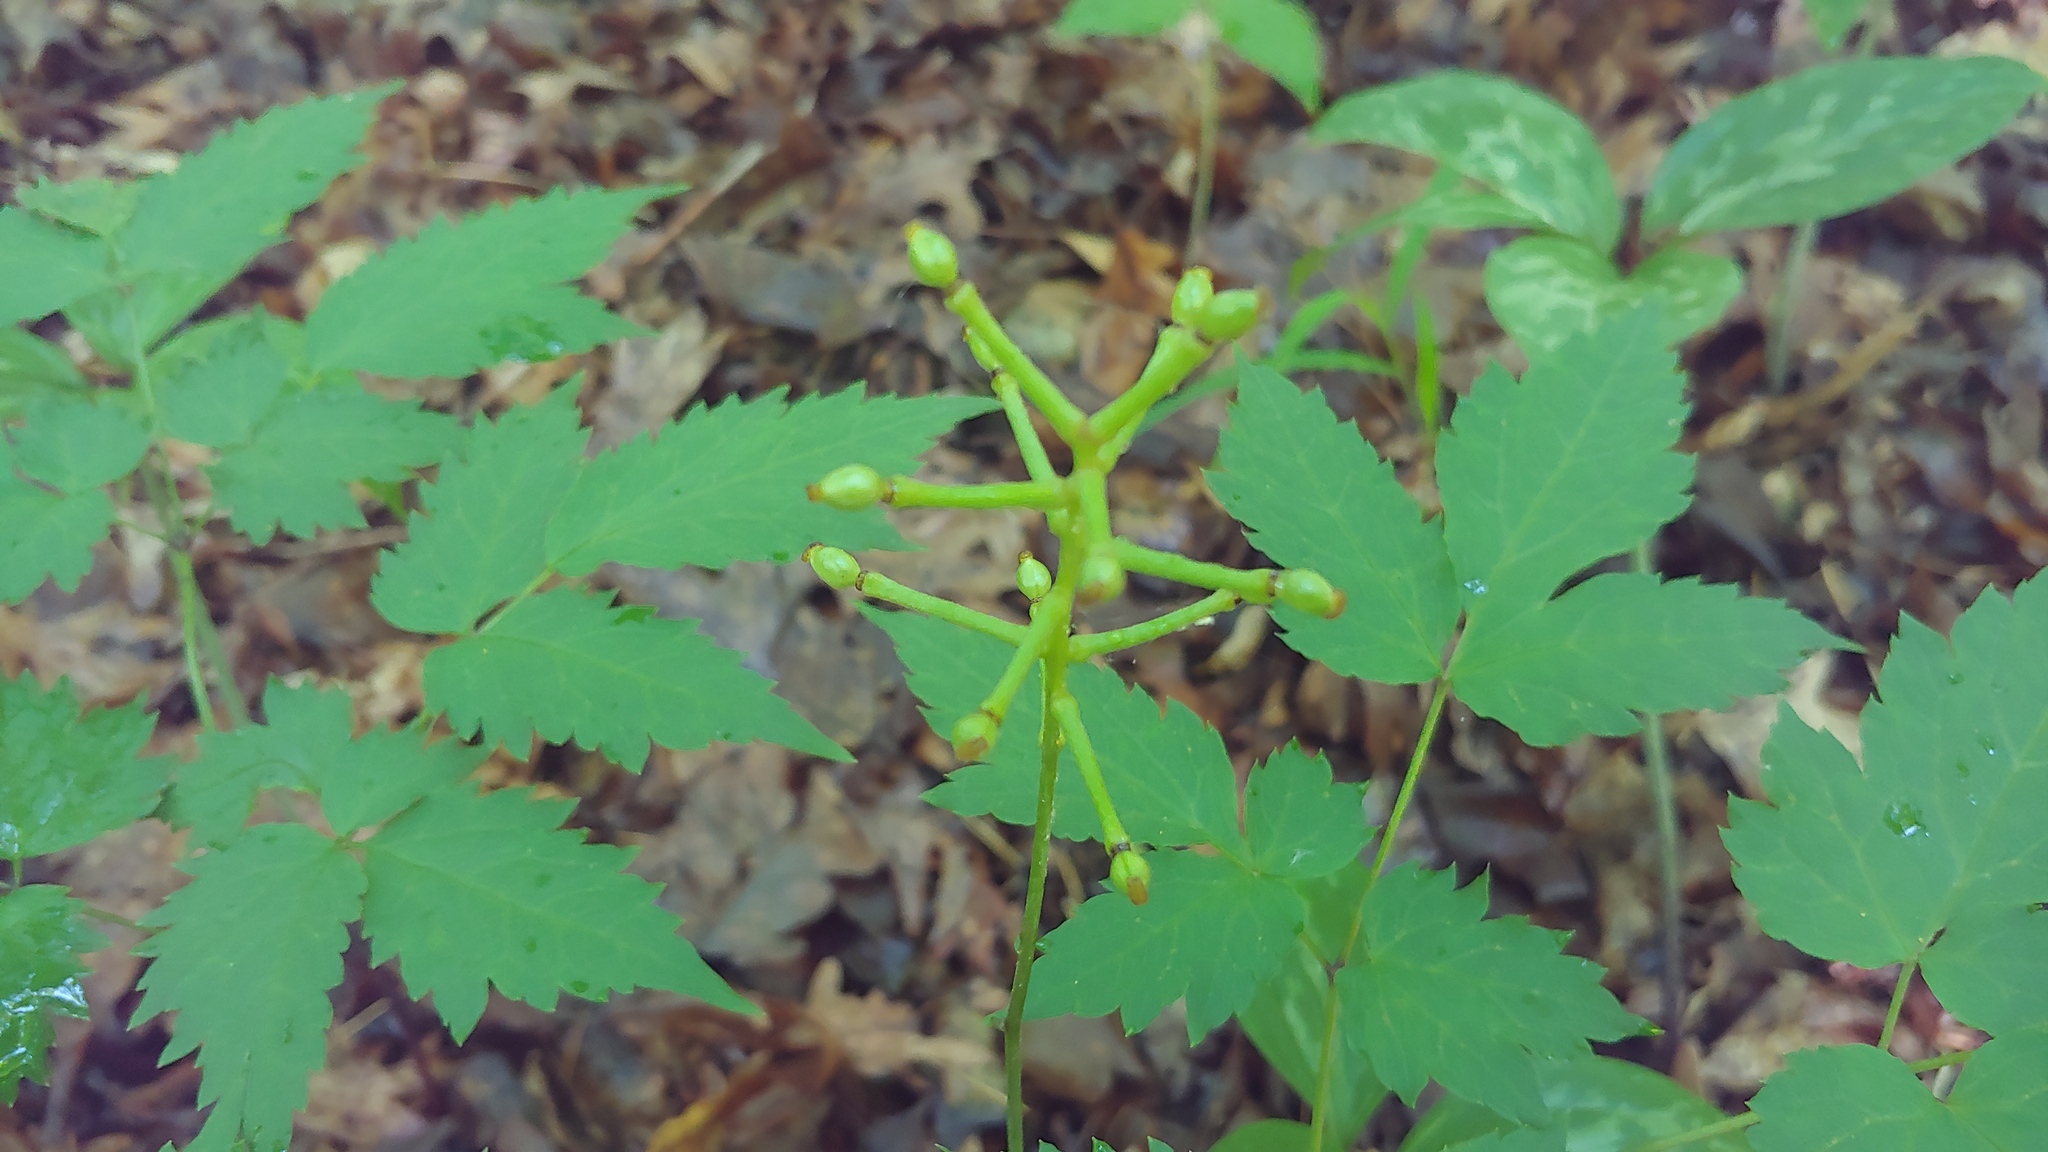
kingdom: Plantae
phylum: Tracheophyta
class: Magnoliopsida
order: Ranunculales
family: Ranunculaceae
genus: Actaea
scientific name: Actaea pachypoda
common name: Doll's-eyes
